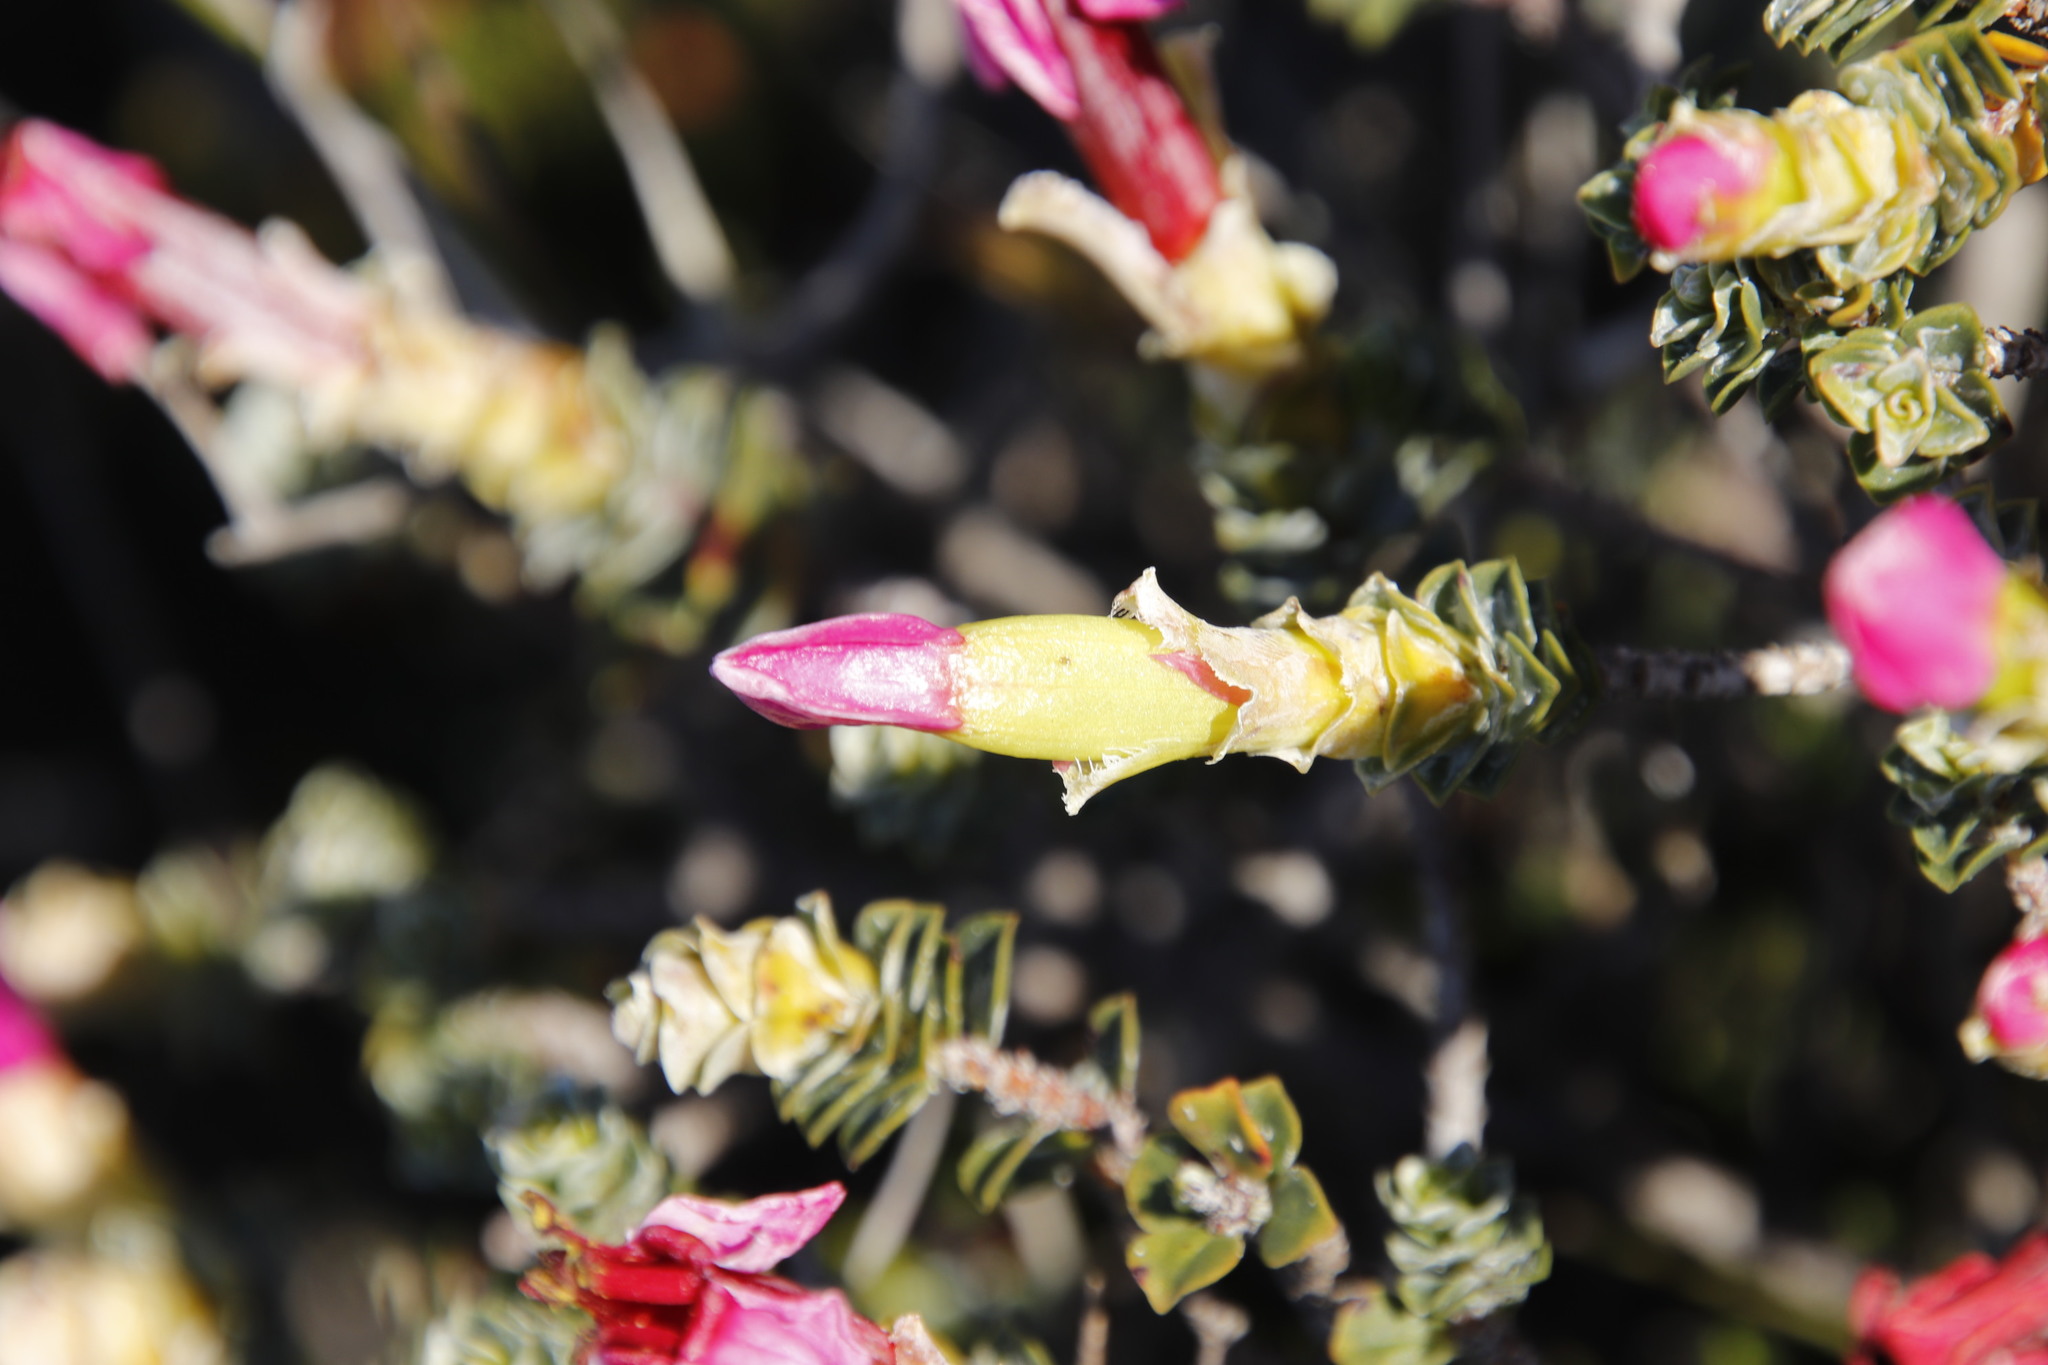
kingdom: Plantae
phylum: Tracheophyta
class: Magnoliopsida
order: Myrtales
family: Penaeaceae
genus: Saltera
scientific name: Saltera sarcocolla
